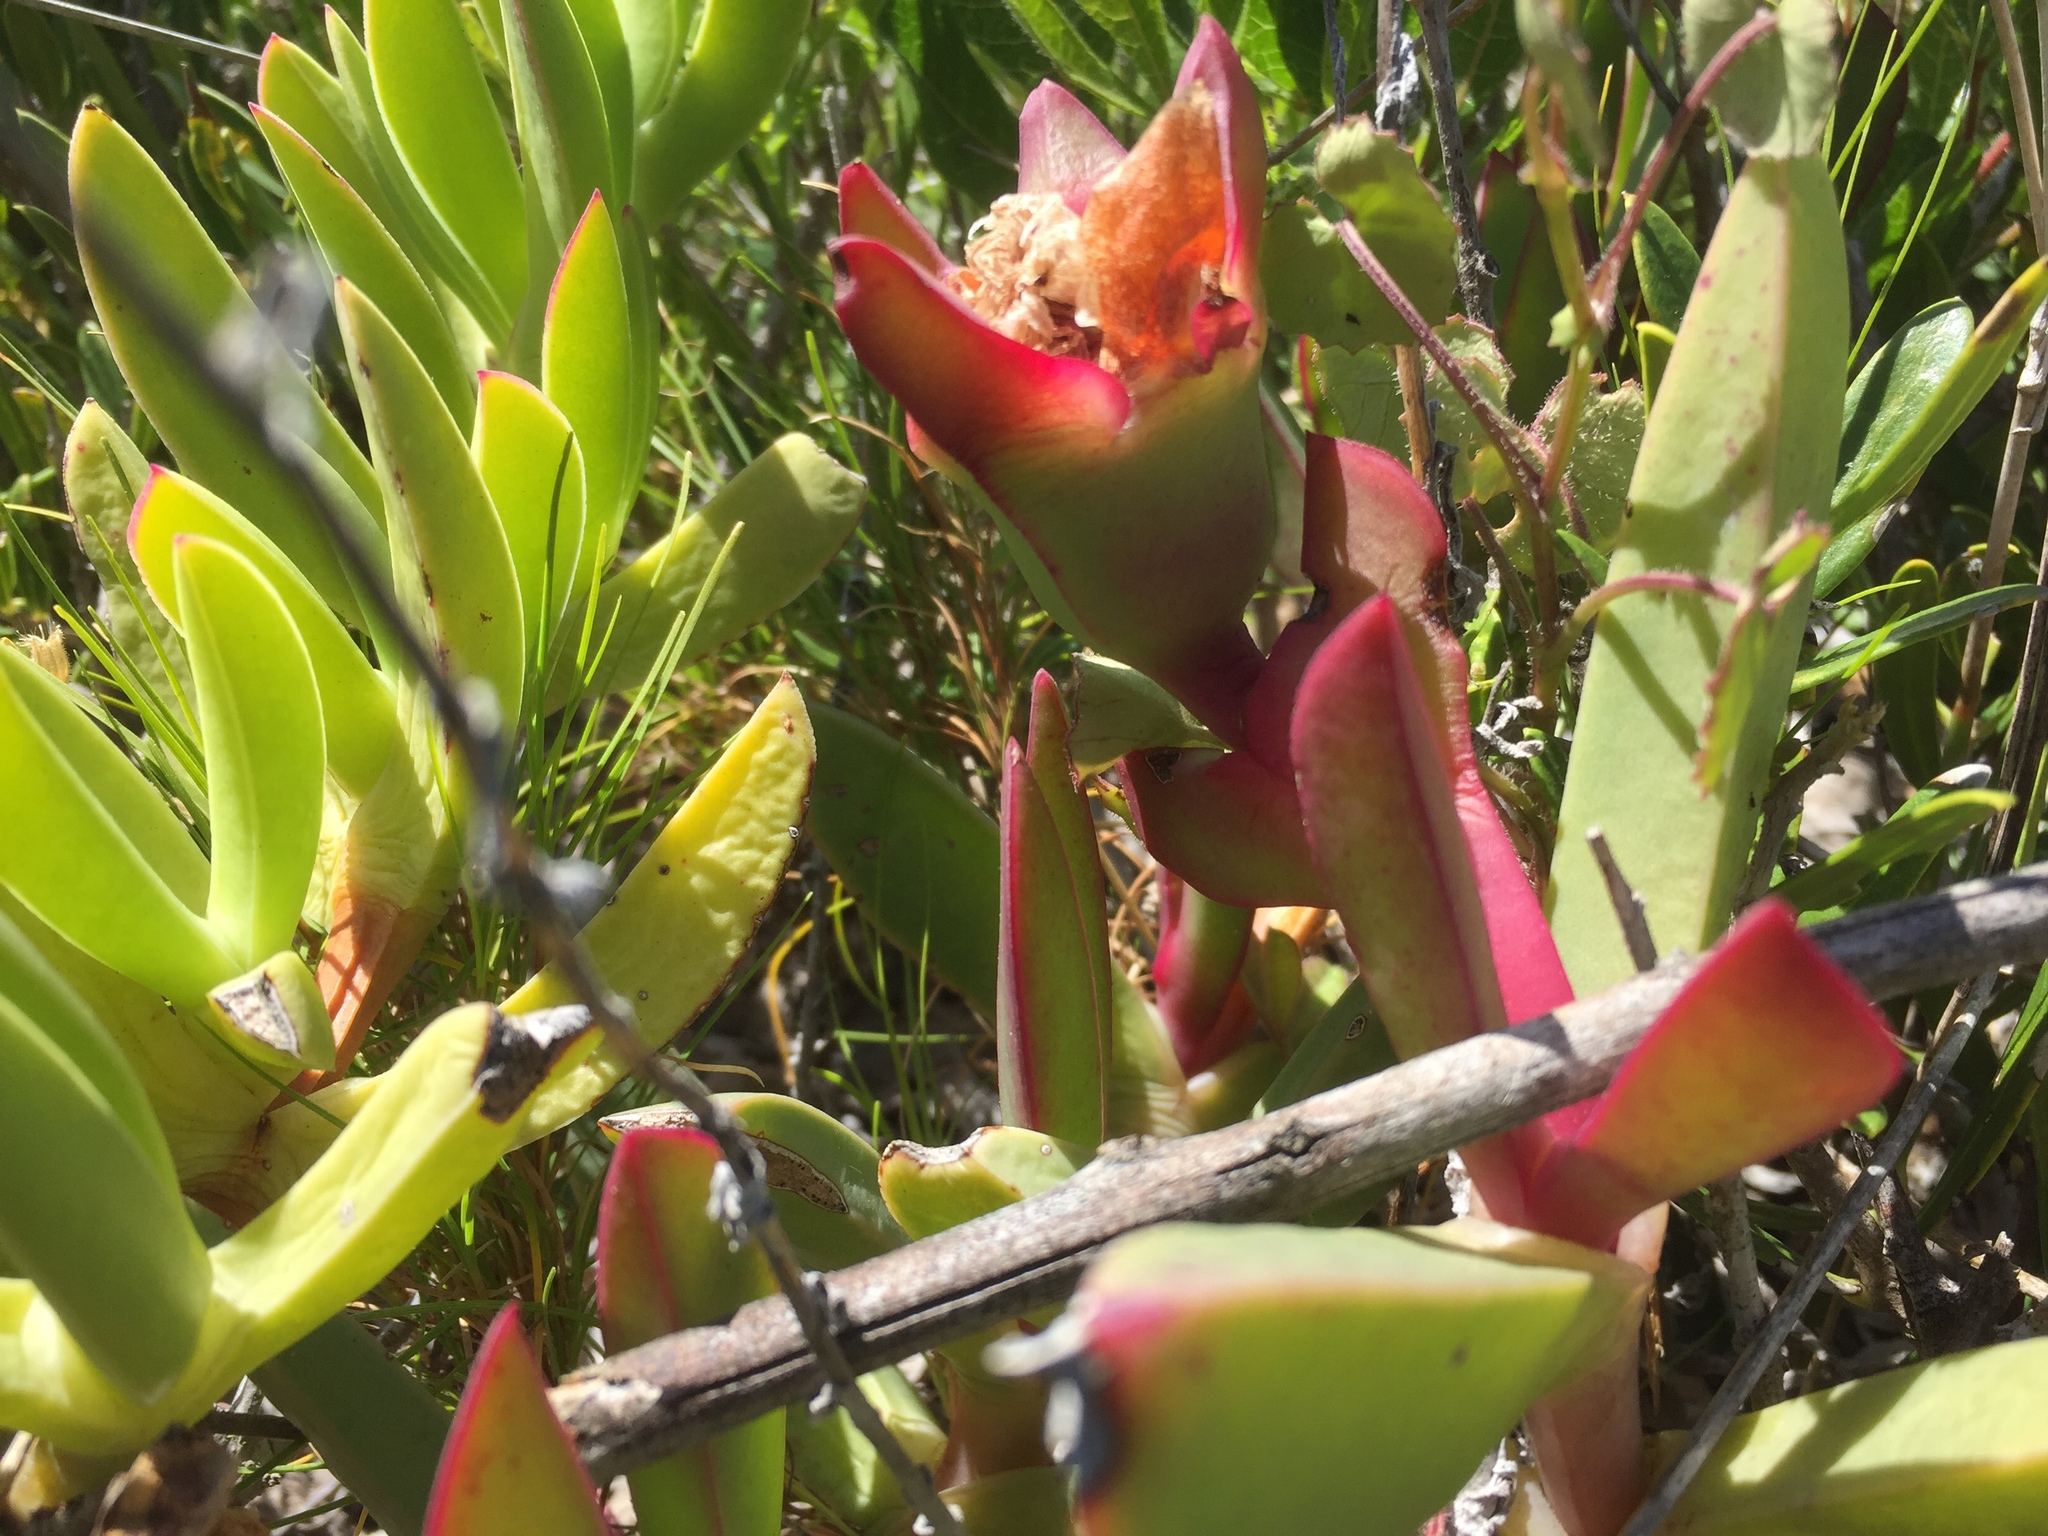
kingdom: Plantae
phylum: Tracheophyta
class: Magnoliopsida
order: Caryophyllales
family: Aizoaceae
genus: Carpobrotus
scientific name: Carpobrotus acinaciformis
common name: Sally-my-handsome
